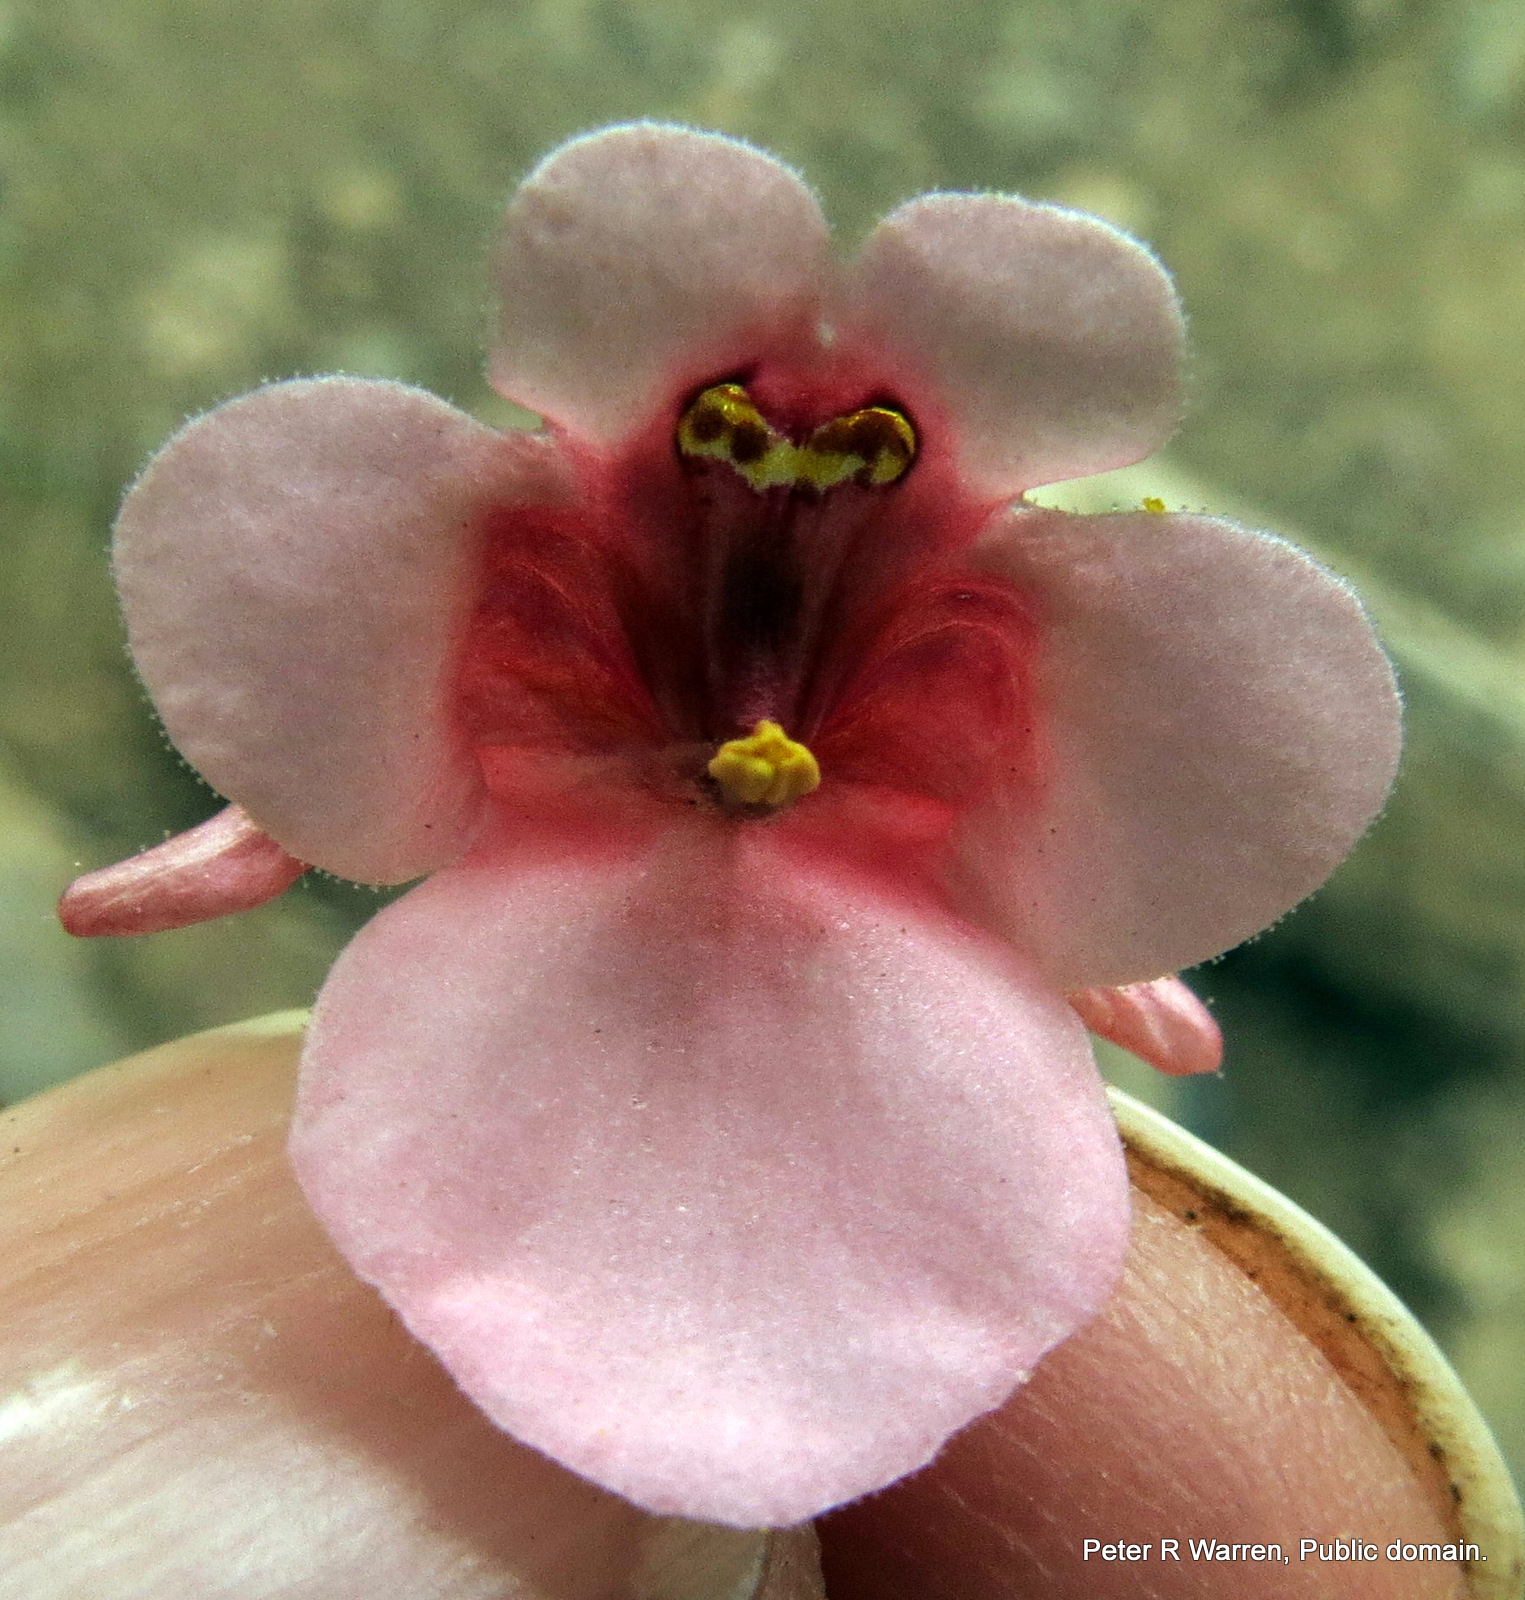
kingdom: Plantae
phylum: Tracheophyta
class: Magnoliopsida
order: Lamiales
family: Scrophulariaceae
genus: Diascia
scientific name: Diascia cordata
